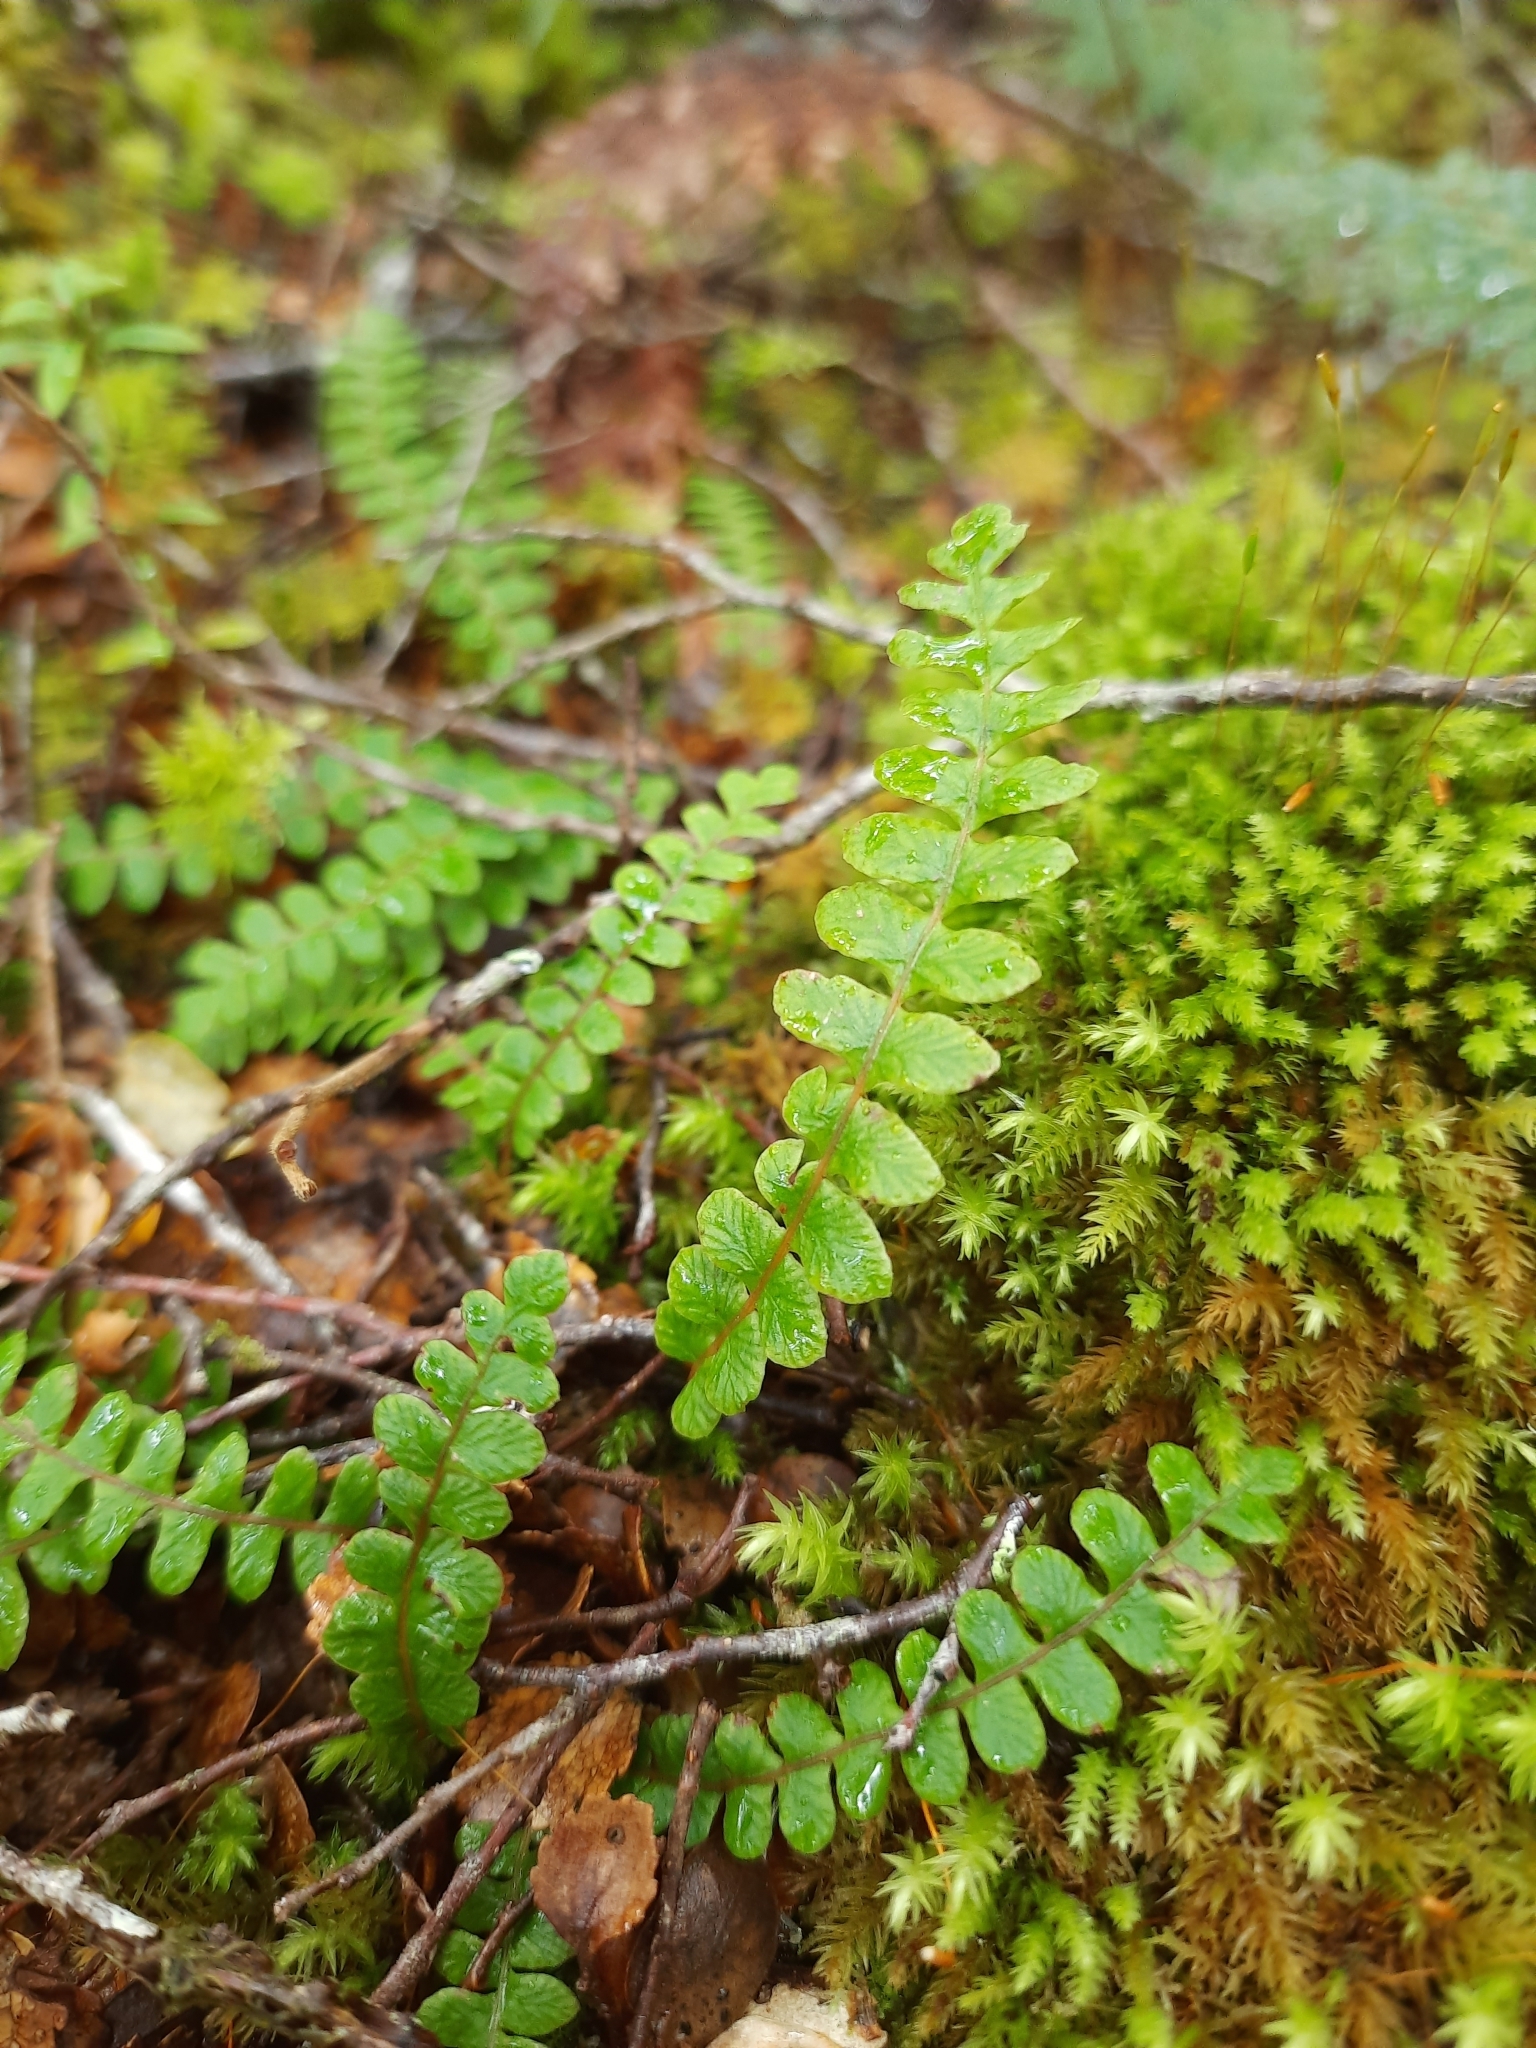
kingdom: Plantae
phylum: Tracheophyta
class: Polypodiopsida
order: Polypodiales
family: Blechnaceae
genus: Austroblechnum
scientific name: Austroblechnum penna-marina
